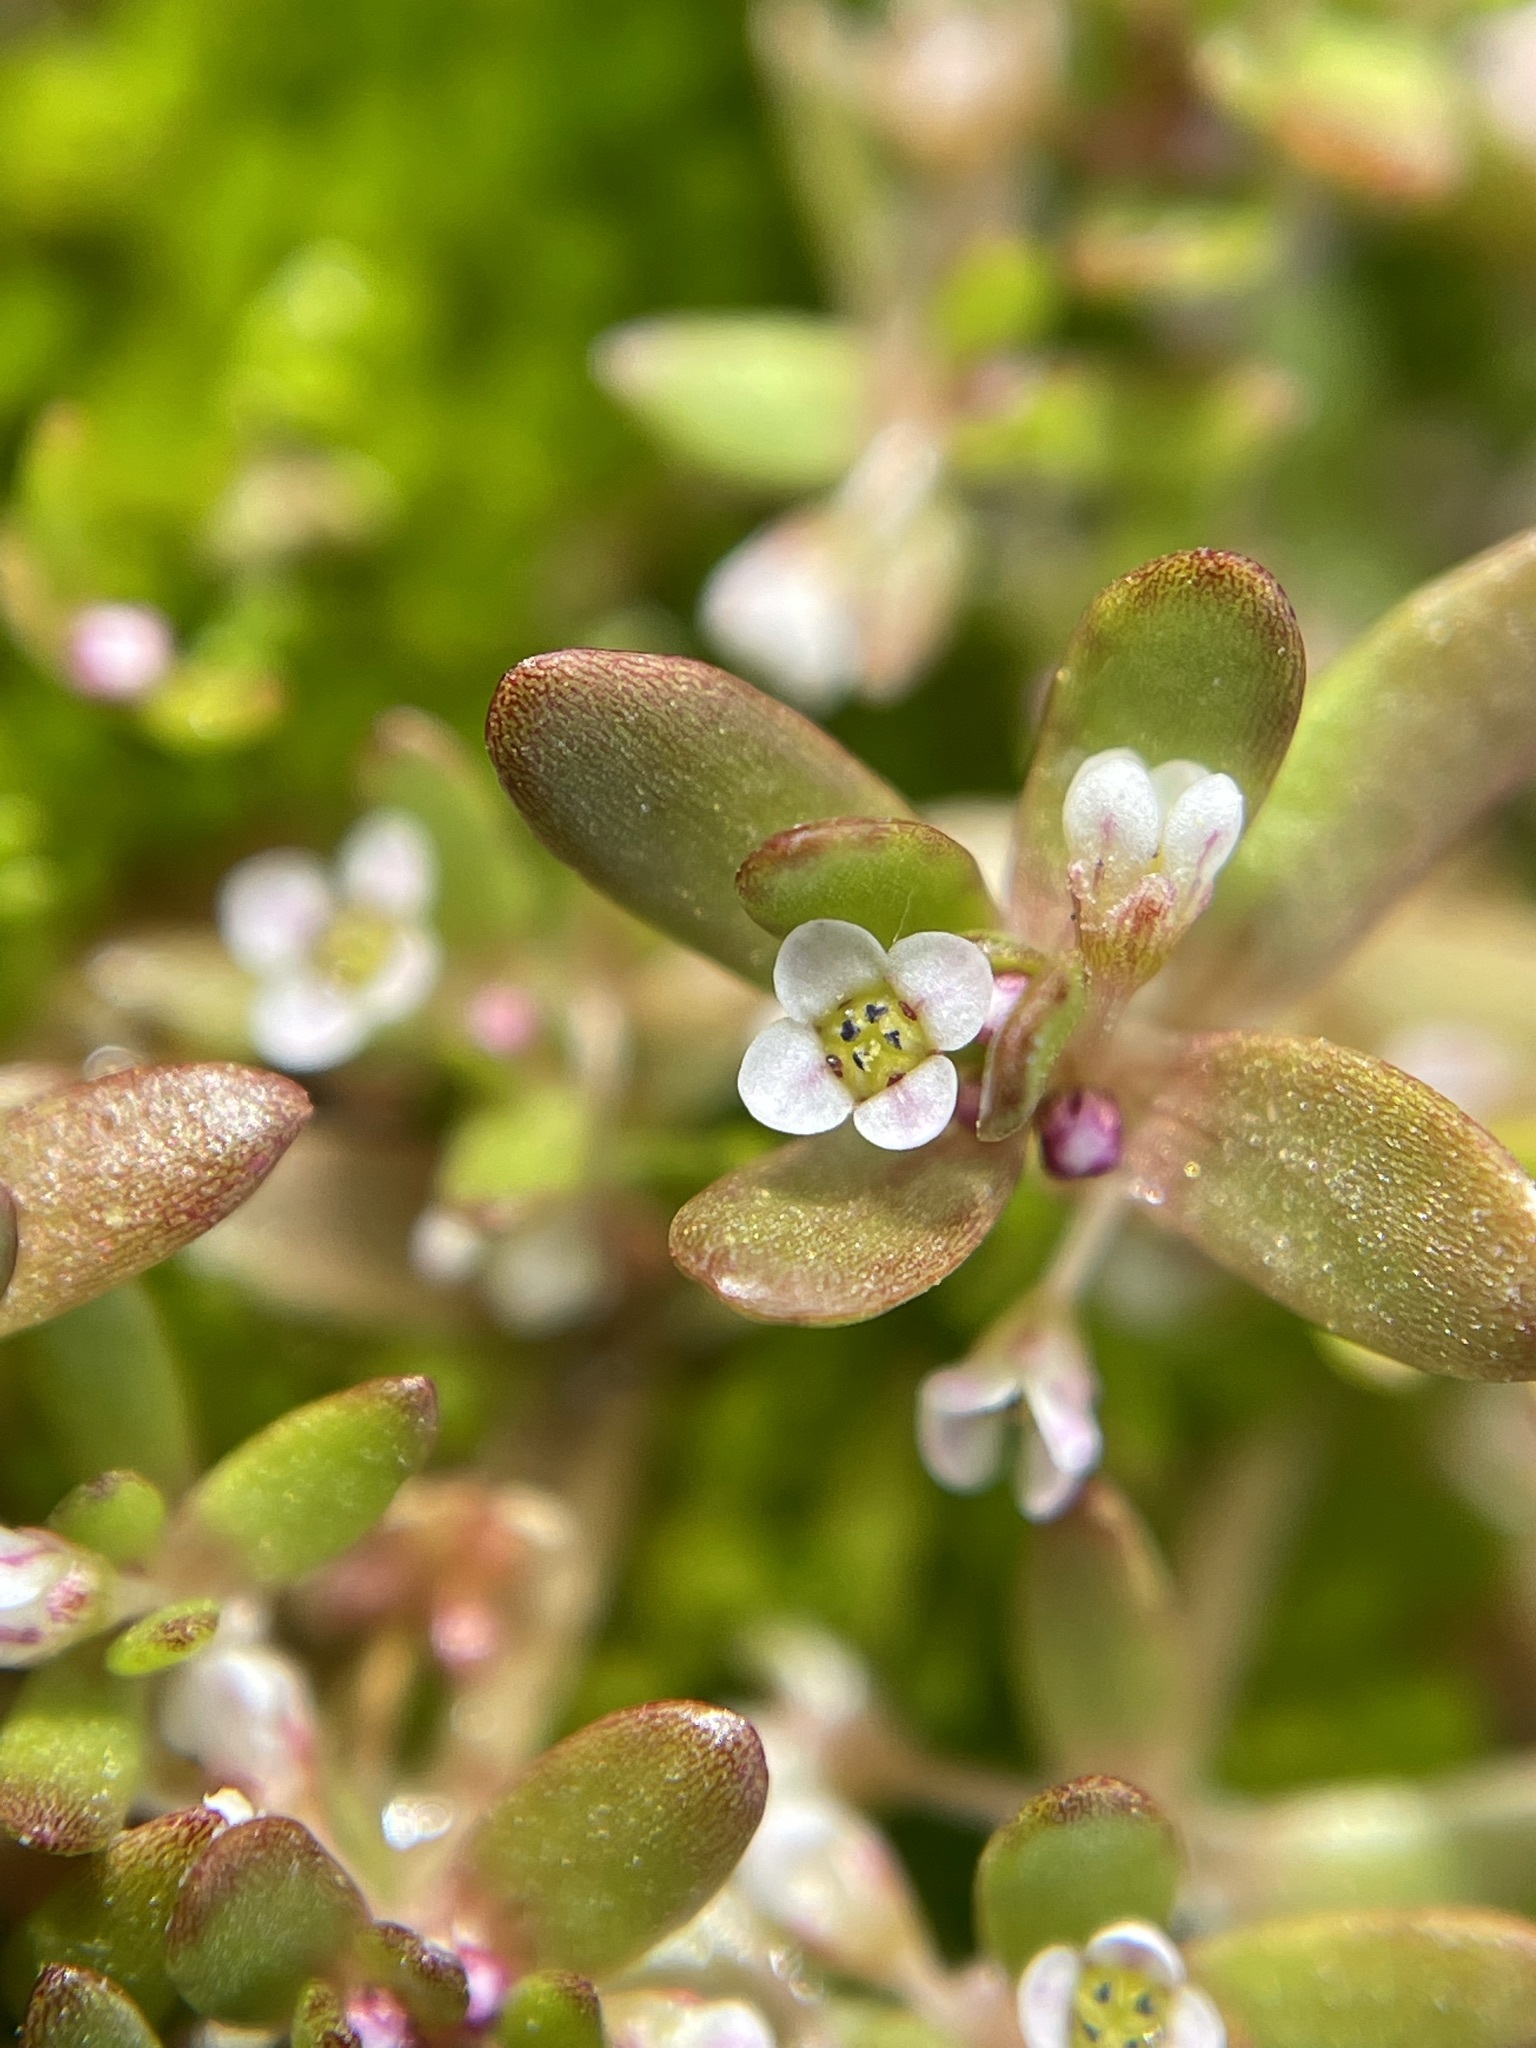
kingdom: Plantae
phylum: Tracheophyta
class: Magnoliopsida
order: Saxifragales
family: Crassulaceae
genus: Crassula
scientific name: Crassula natans
